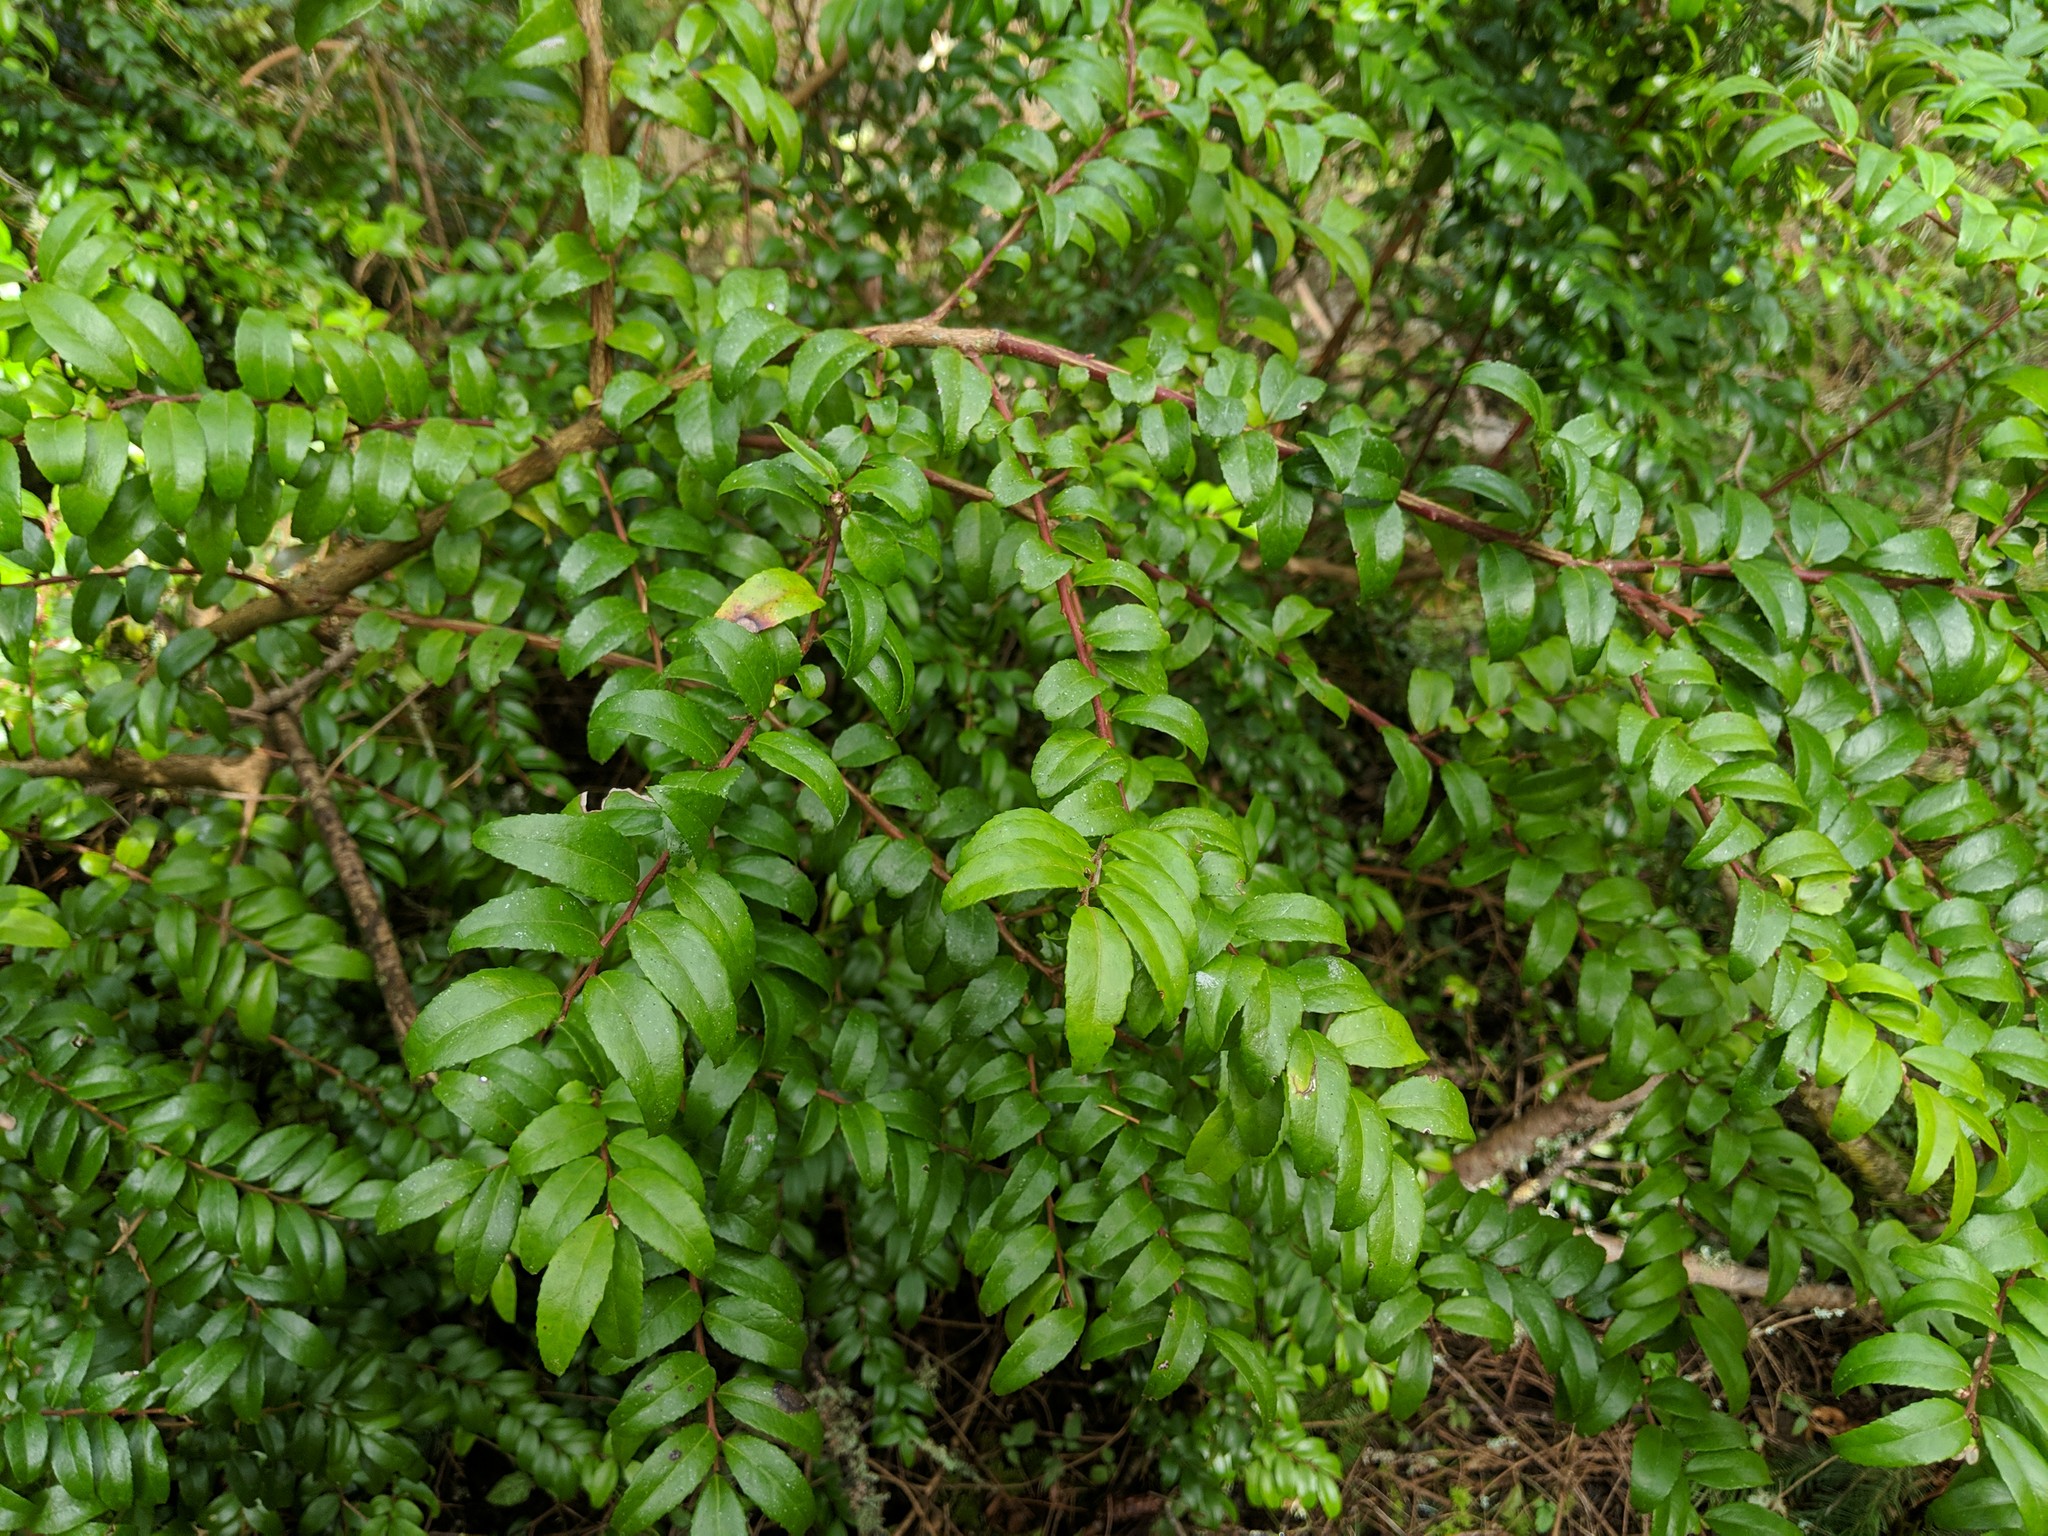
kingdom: Plantae
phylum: Tracheophyta
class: Magnoliopsida
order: Ericales
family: Ericaceae
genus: Vaccinium
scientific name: Vaccinium ovatum
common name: California-huckleberry
